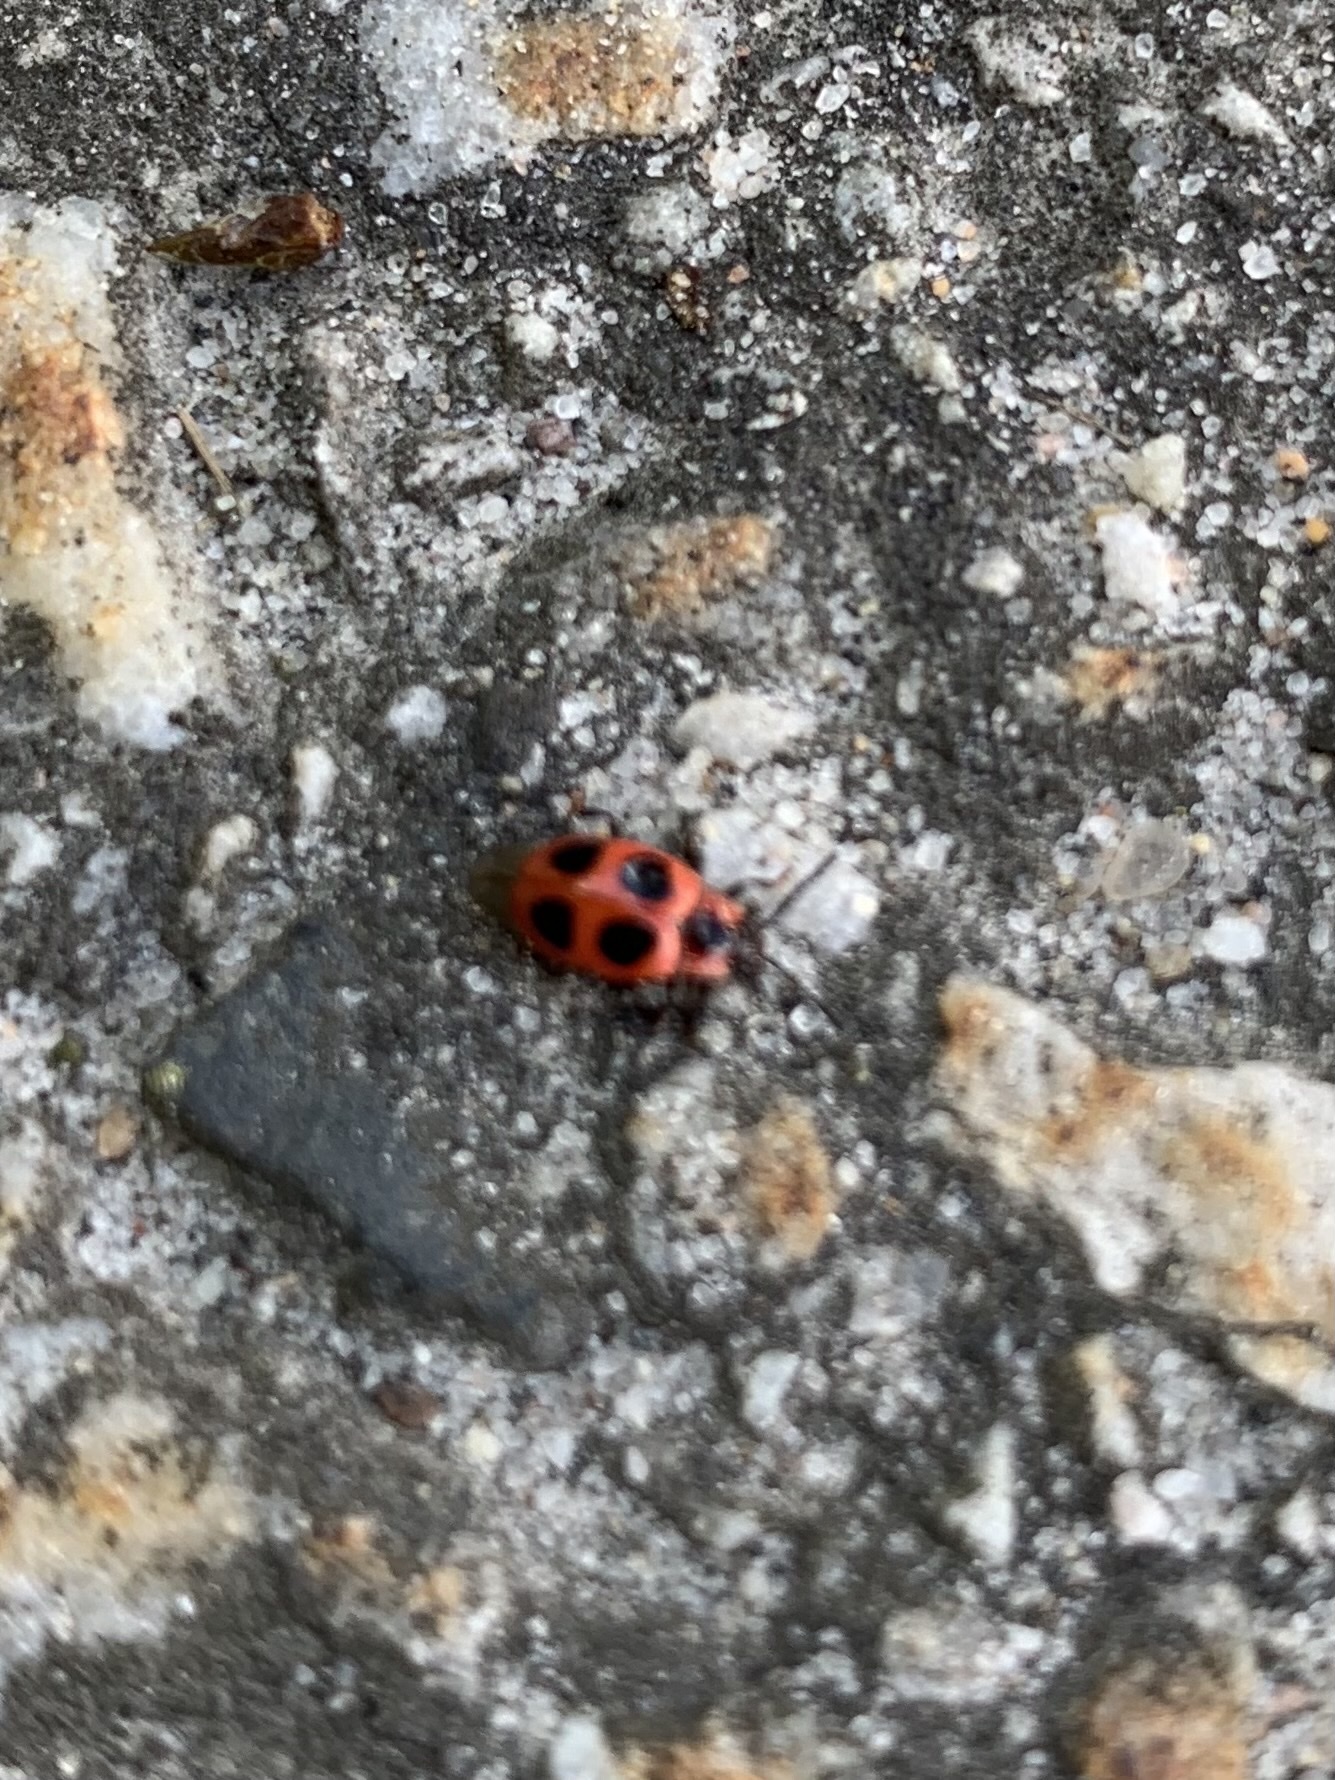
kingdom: Animalia
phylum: Arthropoda
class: Insecta
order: Coleoptera
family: Endomychidae
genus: Endomychus
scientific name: Endomychus coccineus
